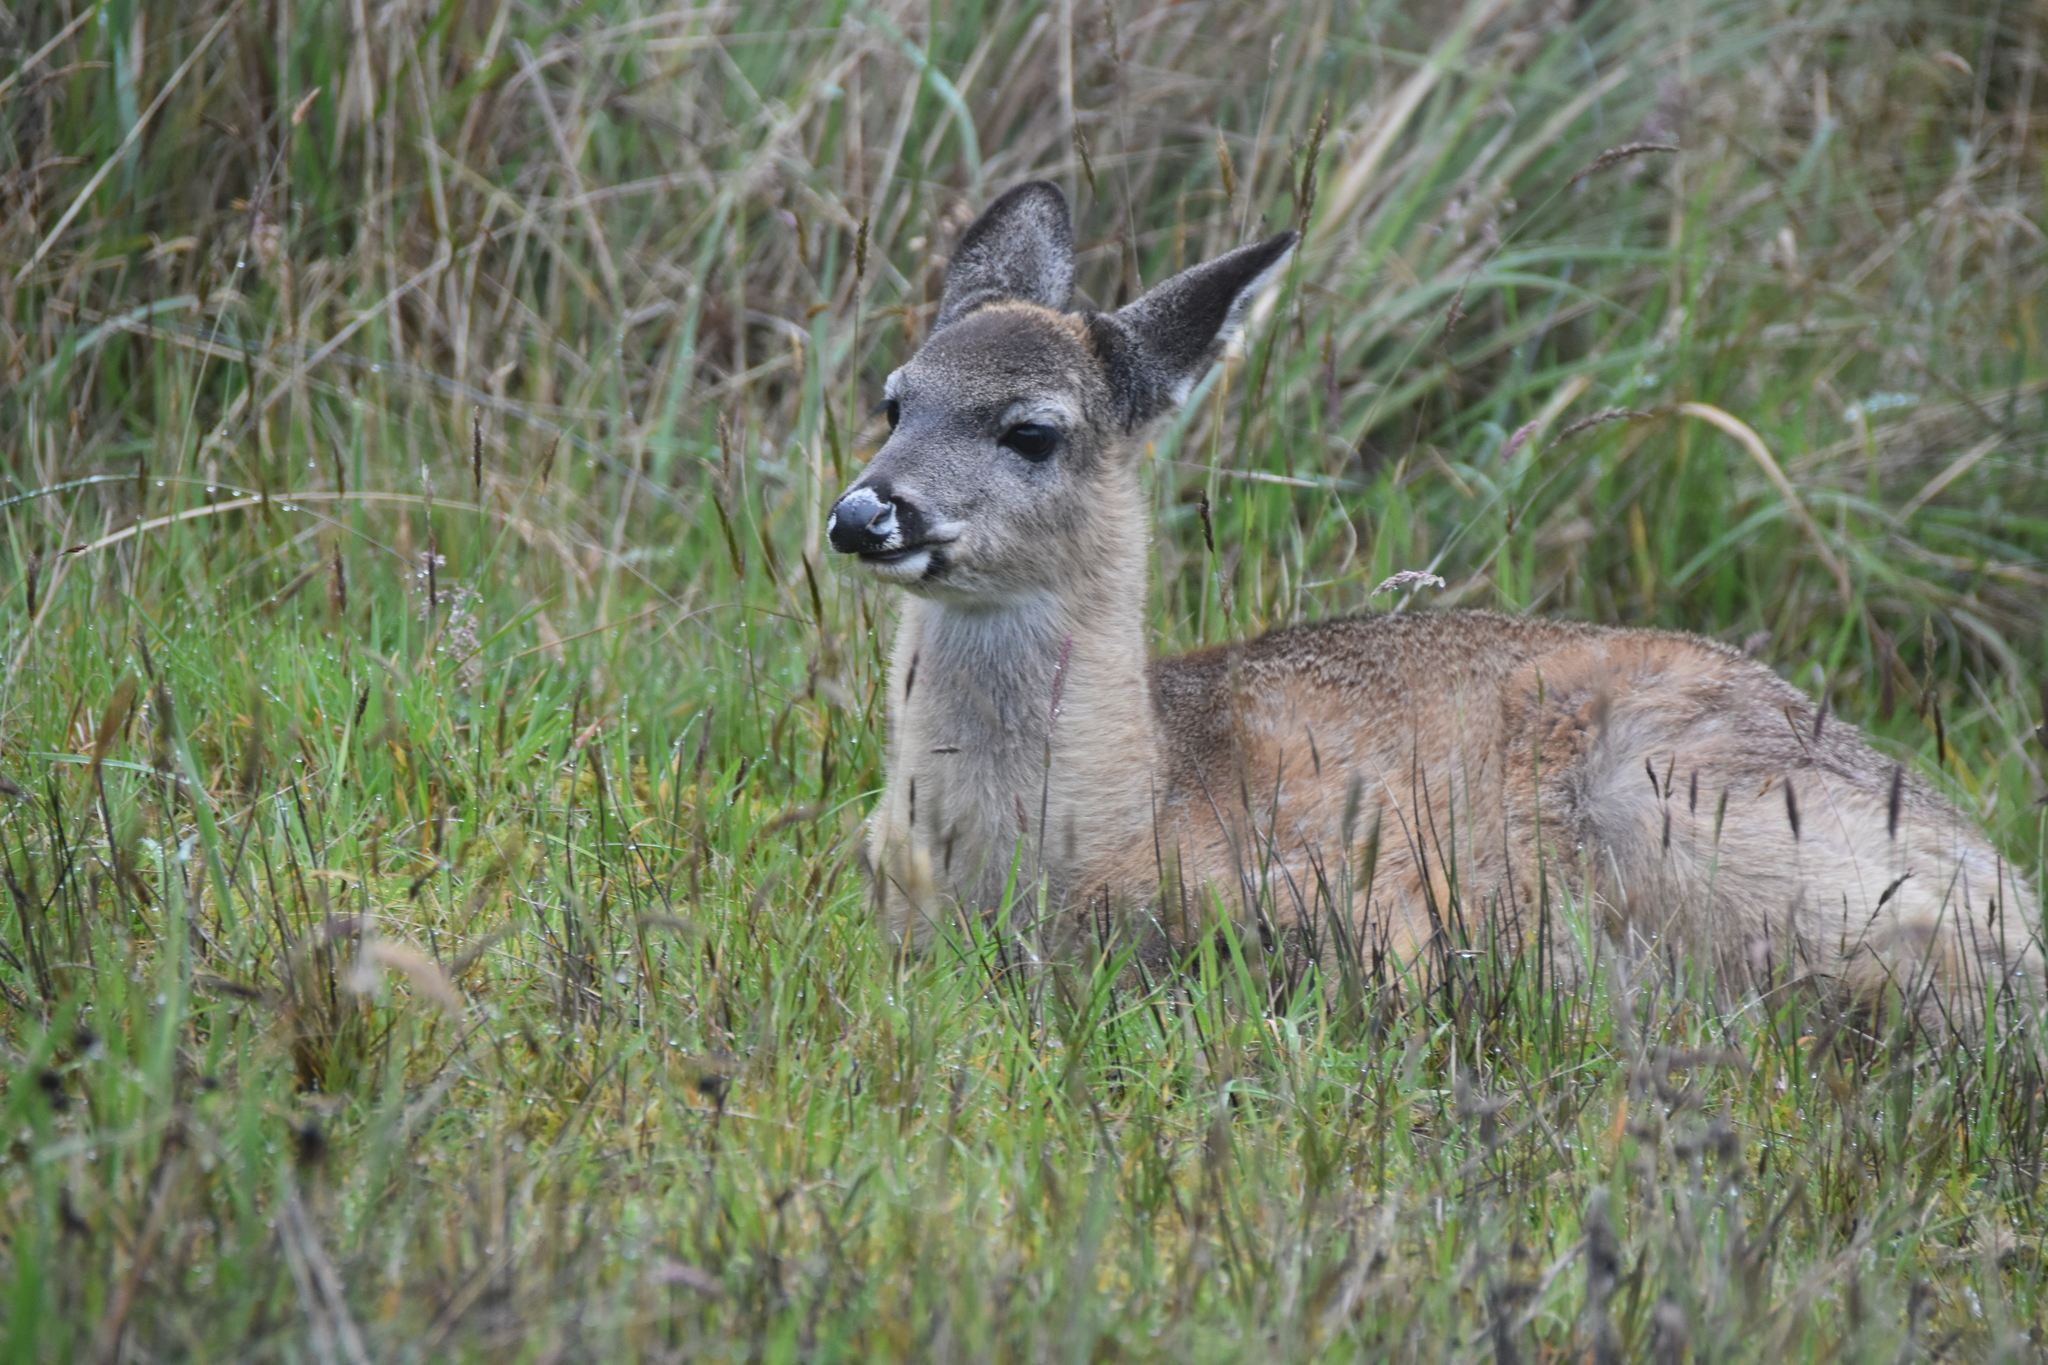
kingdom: Animalia
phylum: Chordata
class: Mammalia
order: Artiodactyla
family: Cervidae
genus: Odocoileus
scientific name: Odocoileus virginianus
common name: White-tailed deer
